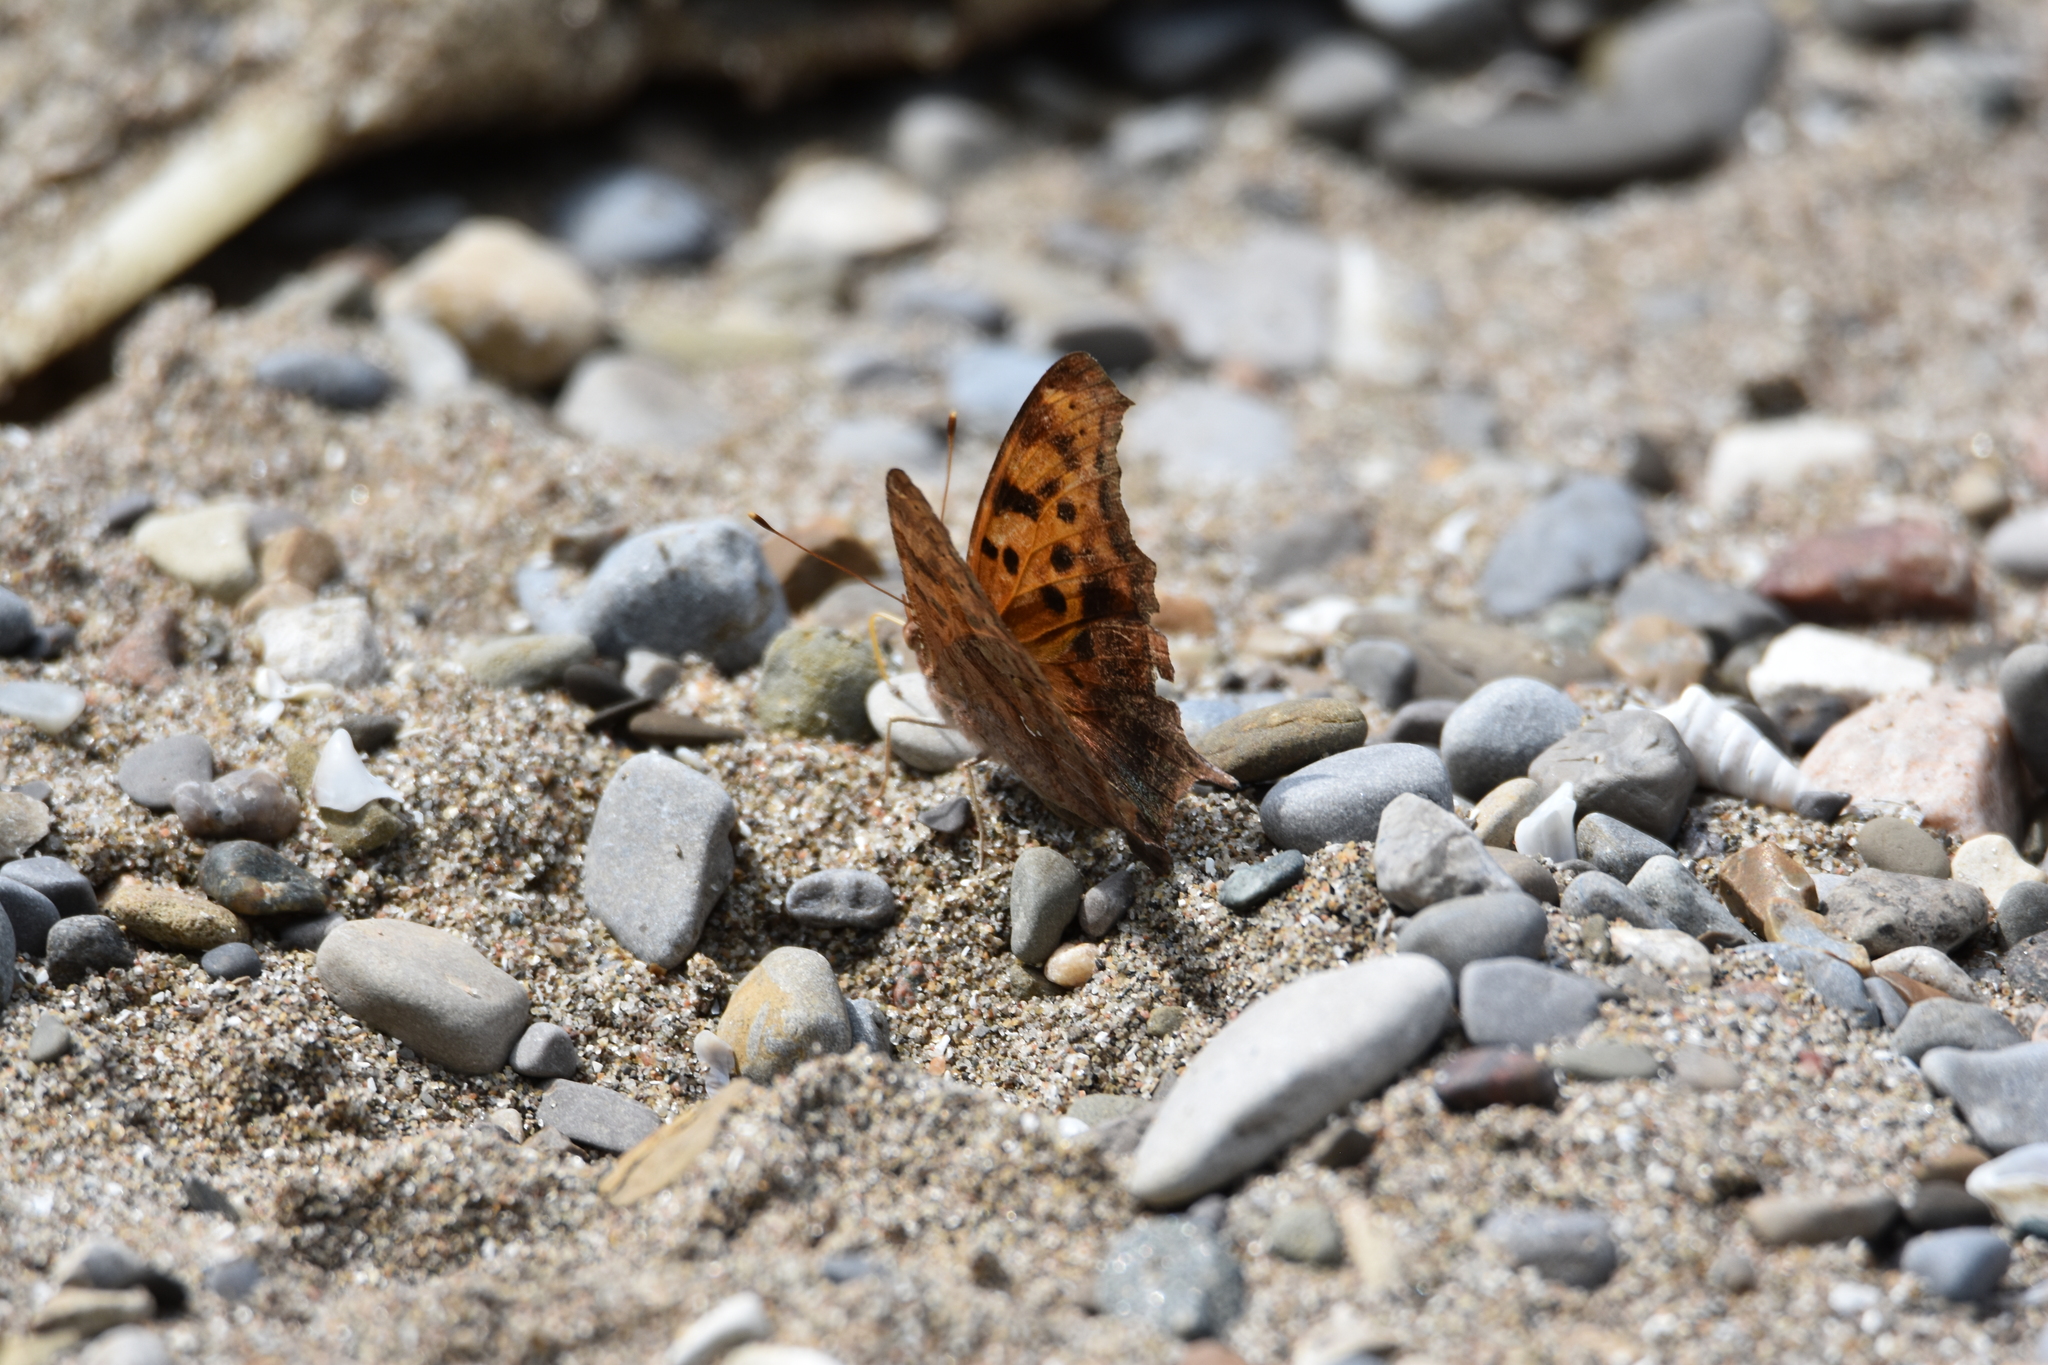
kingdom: Animalia
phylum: Arthropoda
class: Insecta
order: Lepidoptera
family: Nymphalidae
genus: Polygonia
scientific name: Polygonia interrogationis
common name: Question mark
